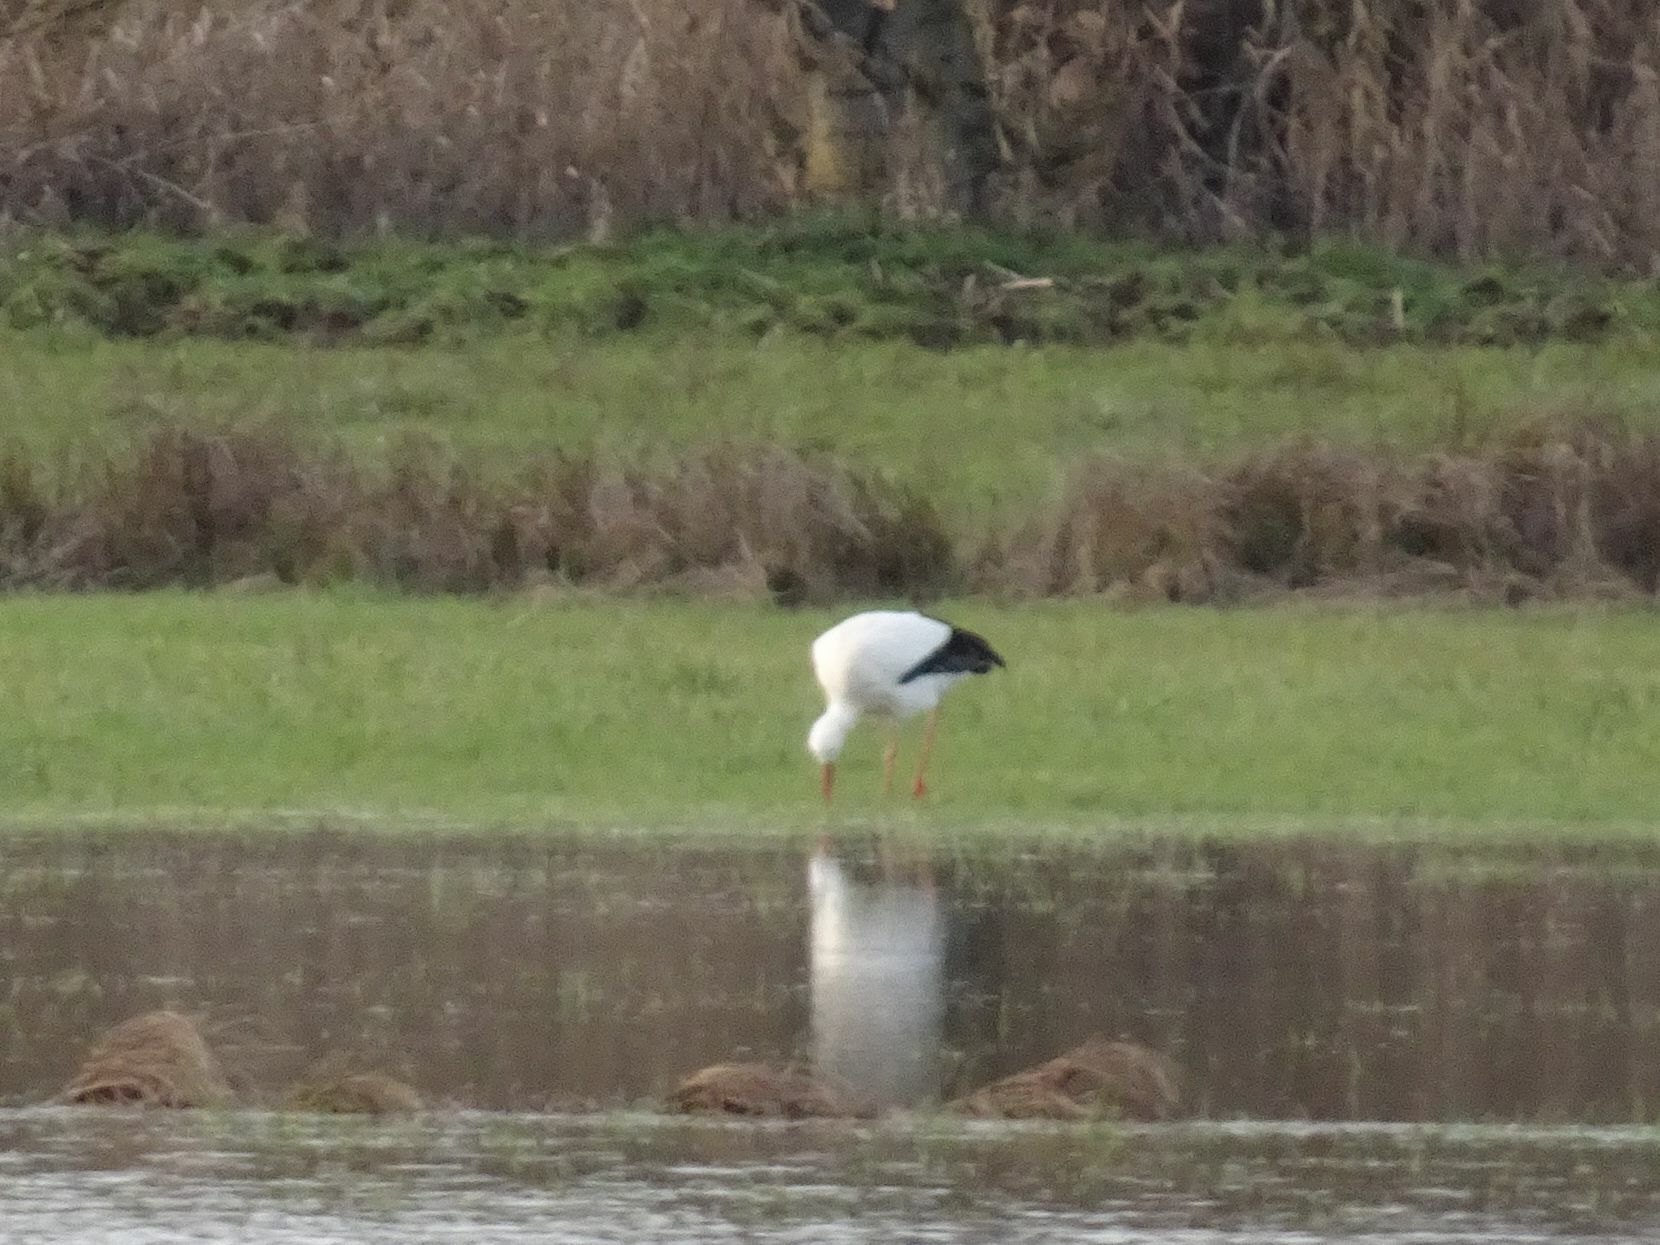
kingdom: Animalia
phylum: Chordata
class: Aves
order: Ciconiiformes
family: Ciconiidae
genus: Ciconia
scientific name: Ciconia ciconia
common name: White stork
